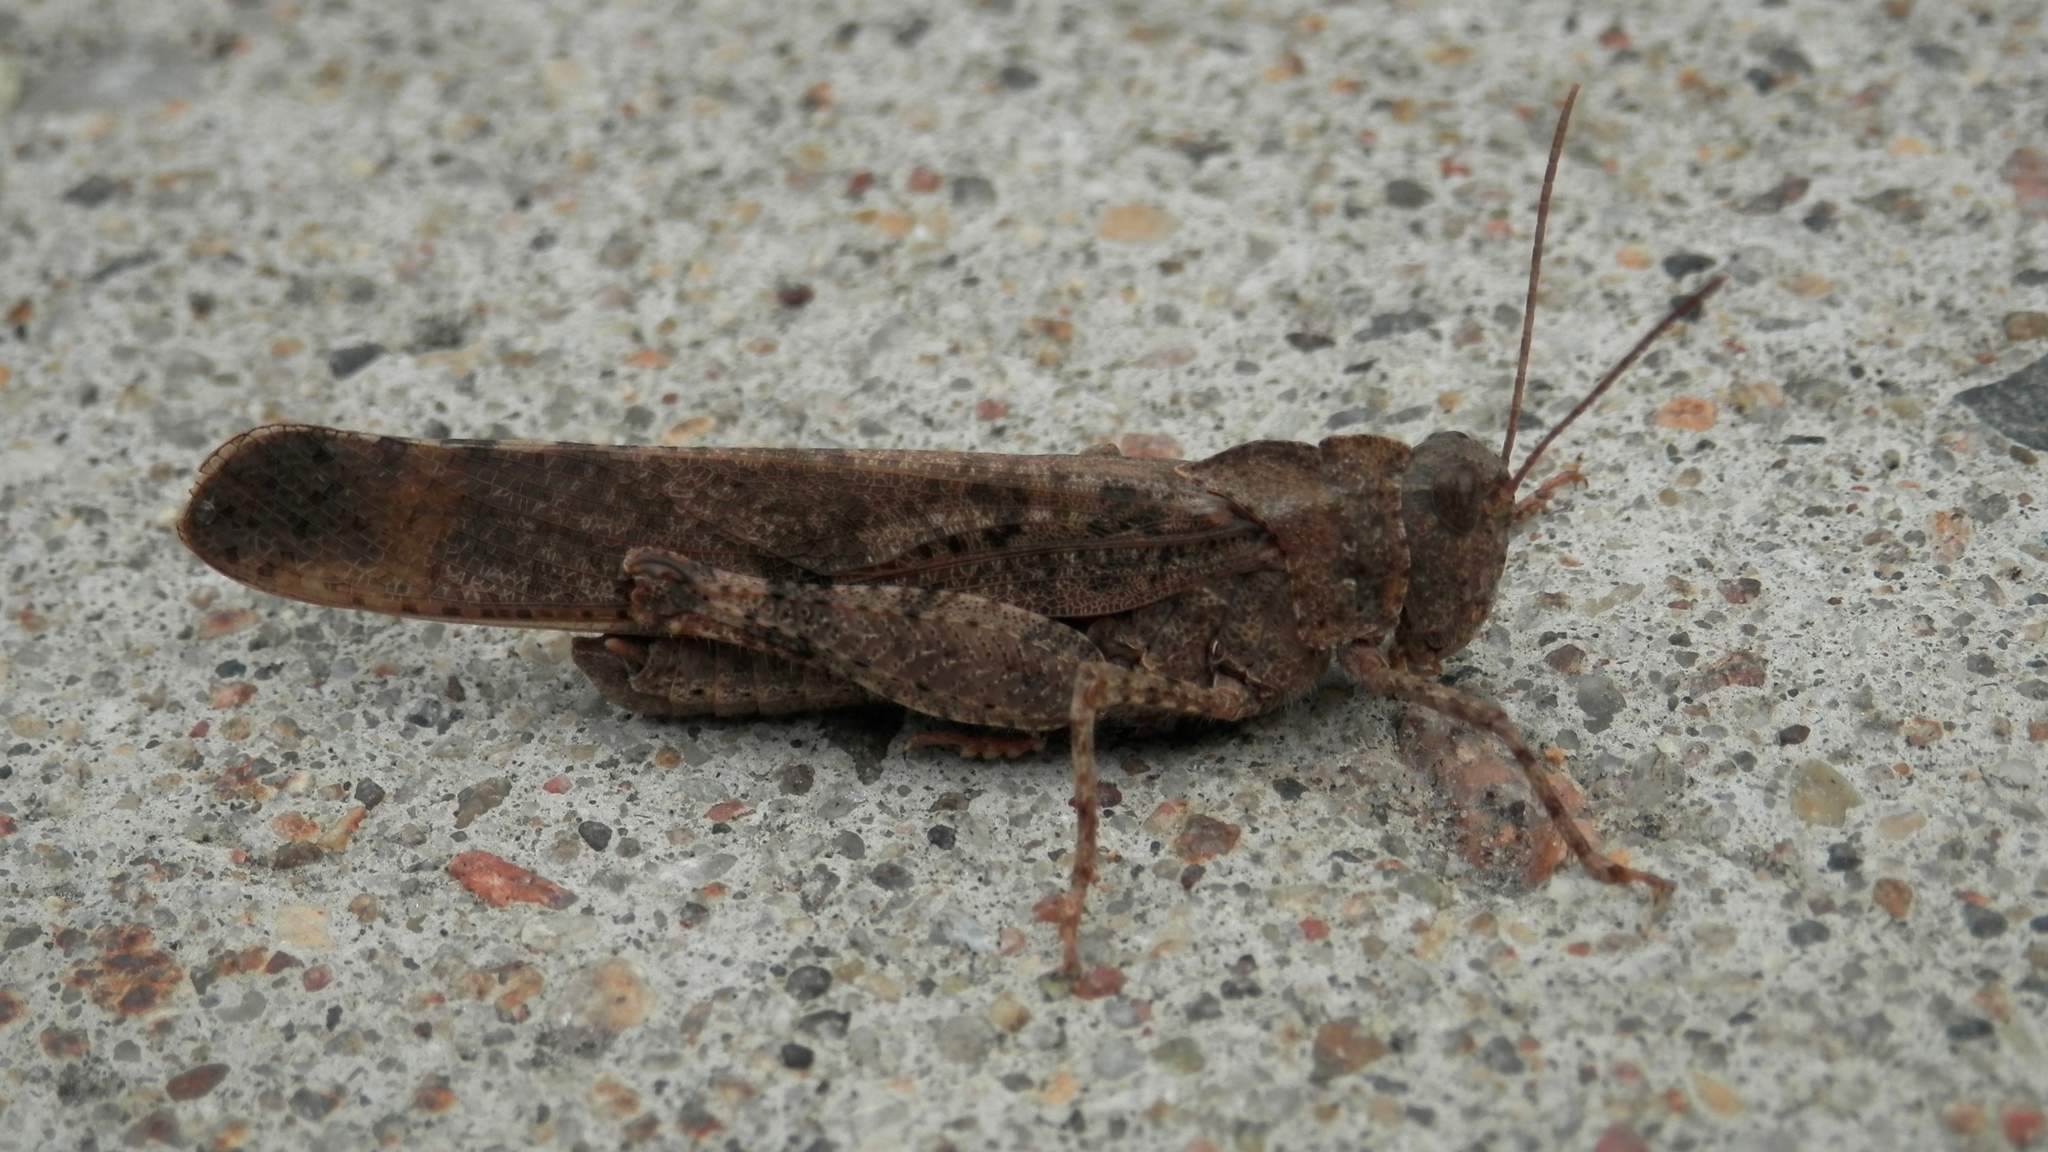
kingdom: Animalia
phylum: Arthropoda
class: Insecta
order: Orthoptera
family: Acrididae
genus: Dissosteira
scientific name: Dissosteira carolina
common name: Carolina grasshopper
